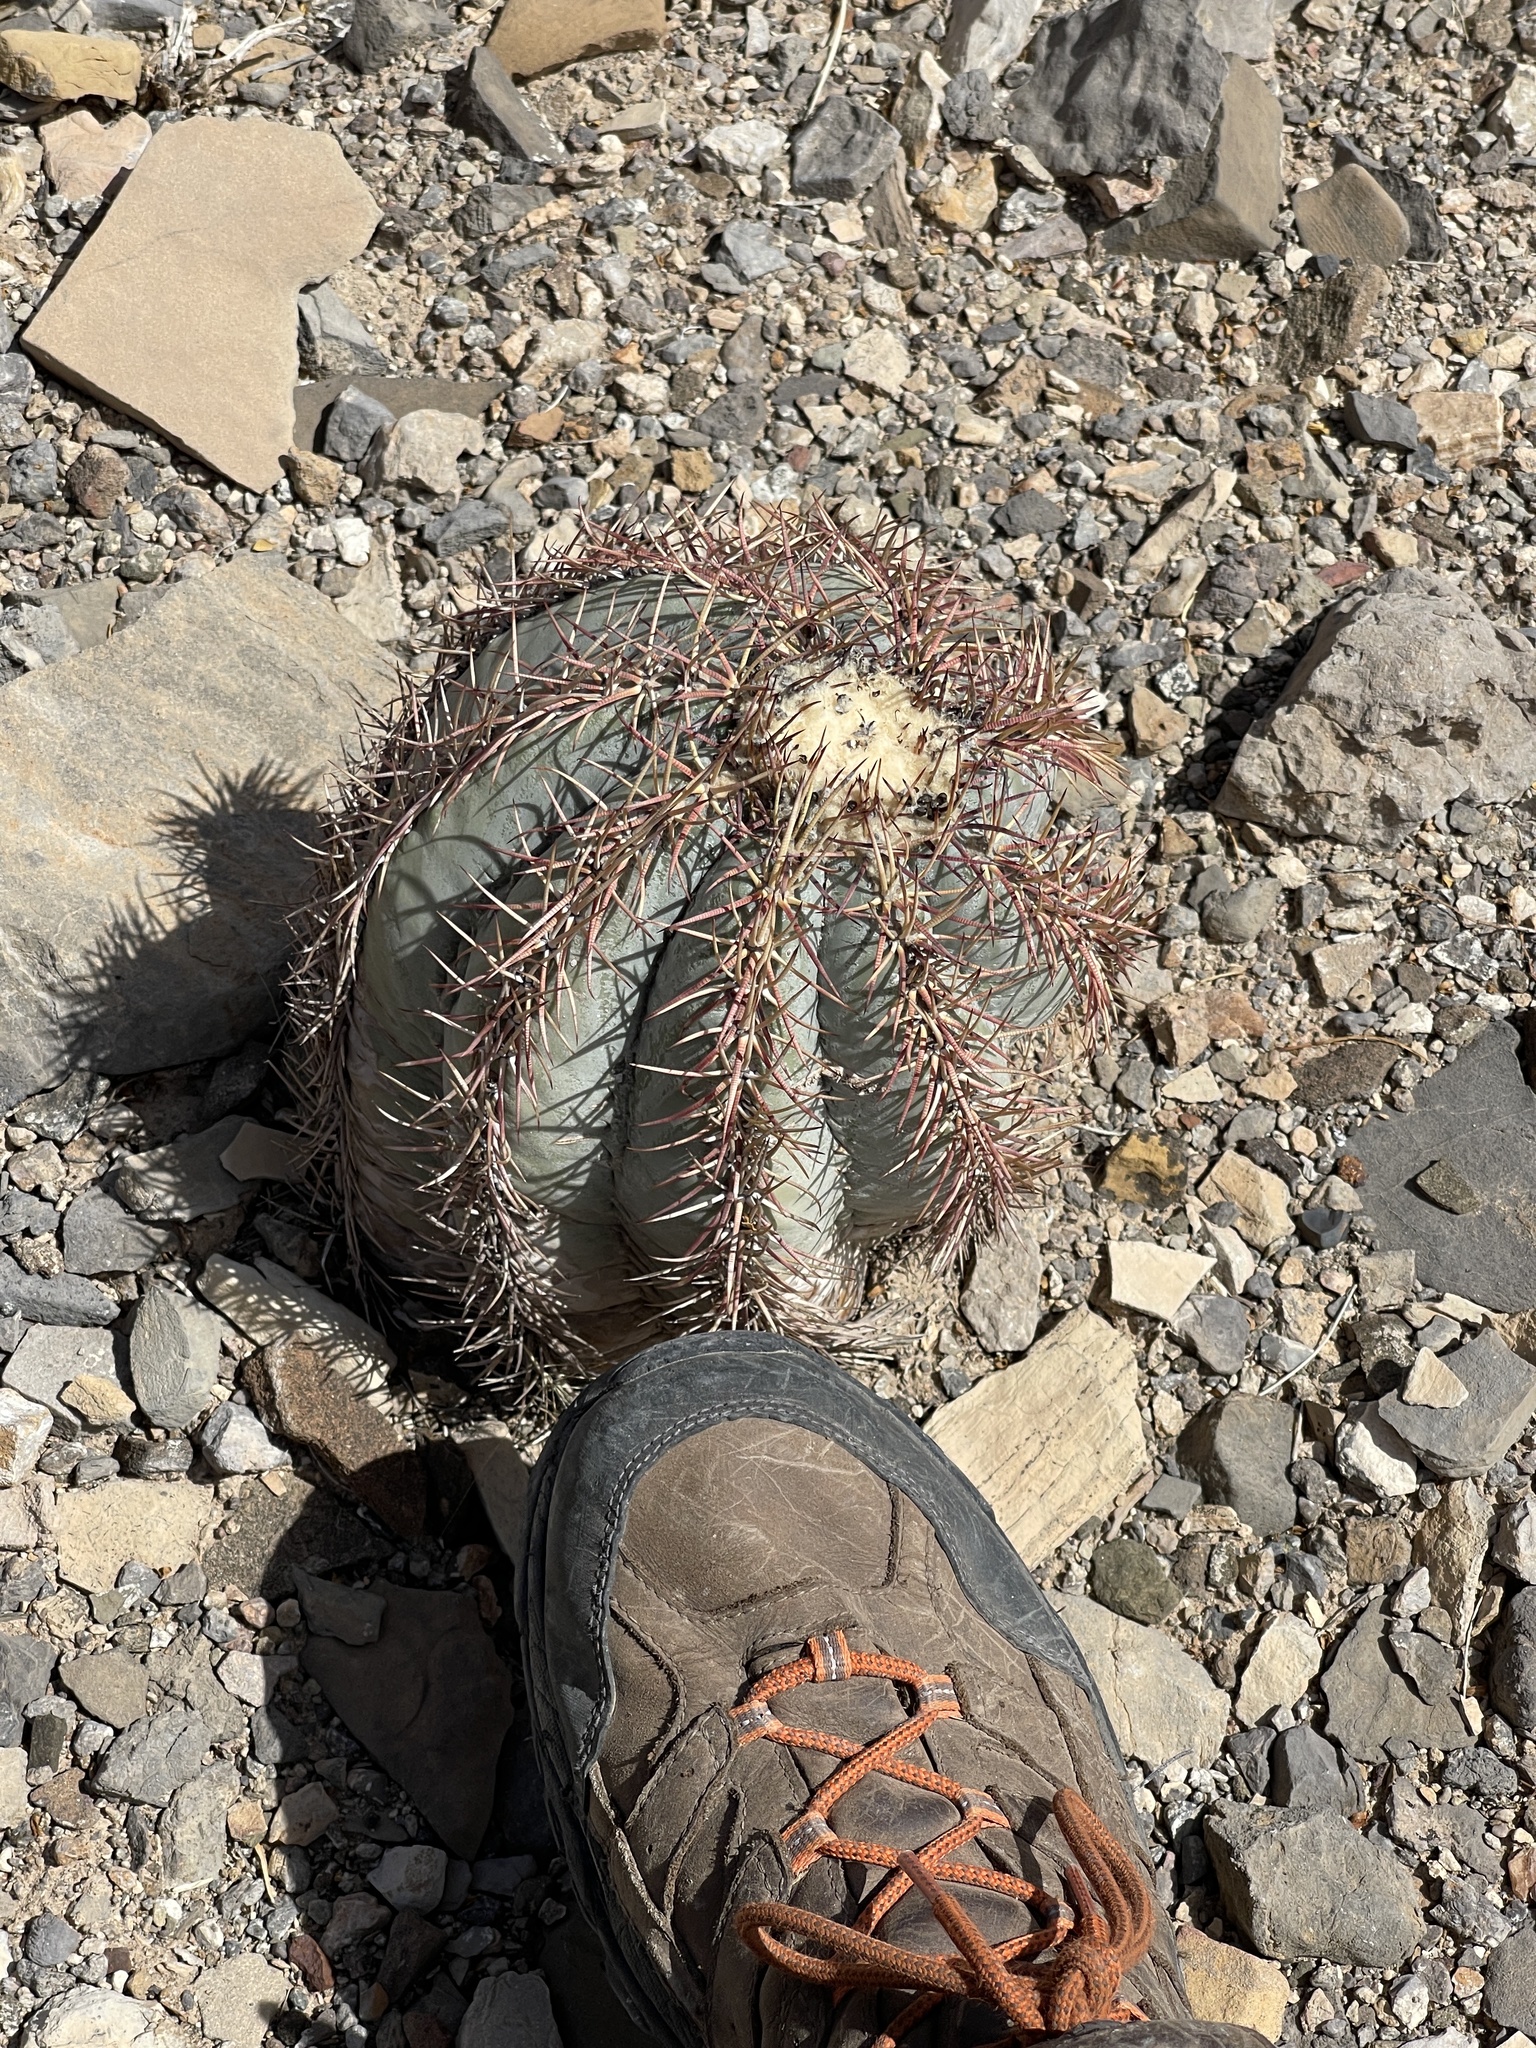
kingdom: Plantae
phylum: Tracheophyta
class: Magnoliopsida
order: Caryophyllales
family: Cactaceae
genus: Echinocactus
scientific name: Echinocactus horizonthalonius
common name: Devilshead
